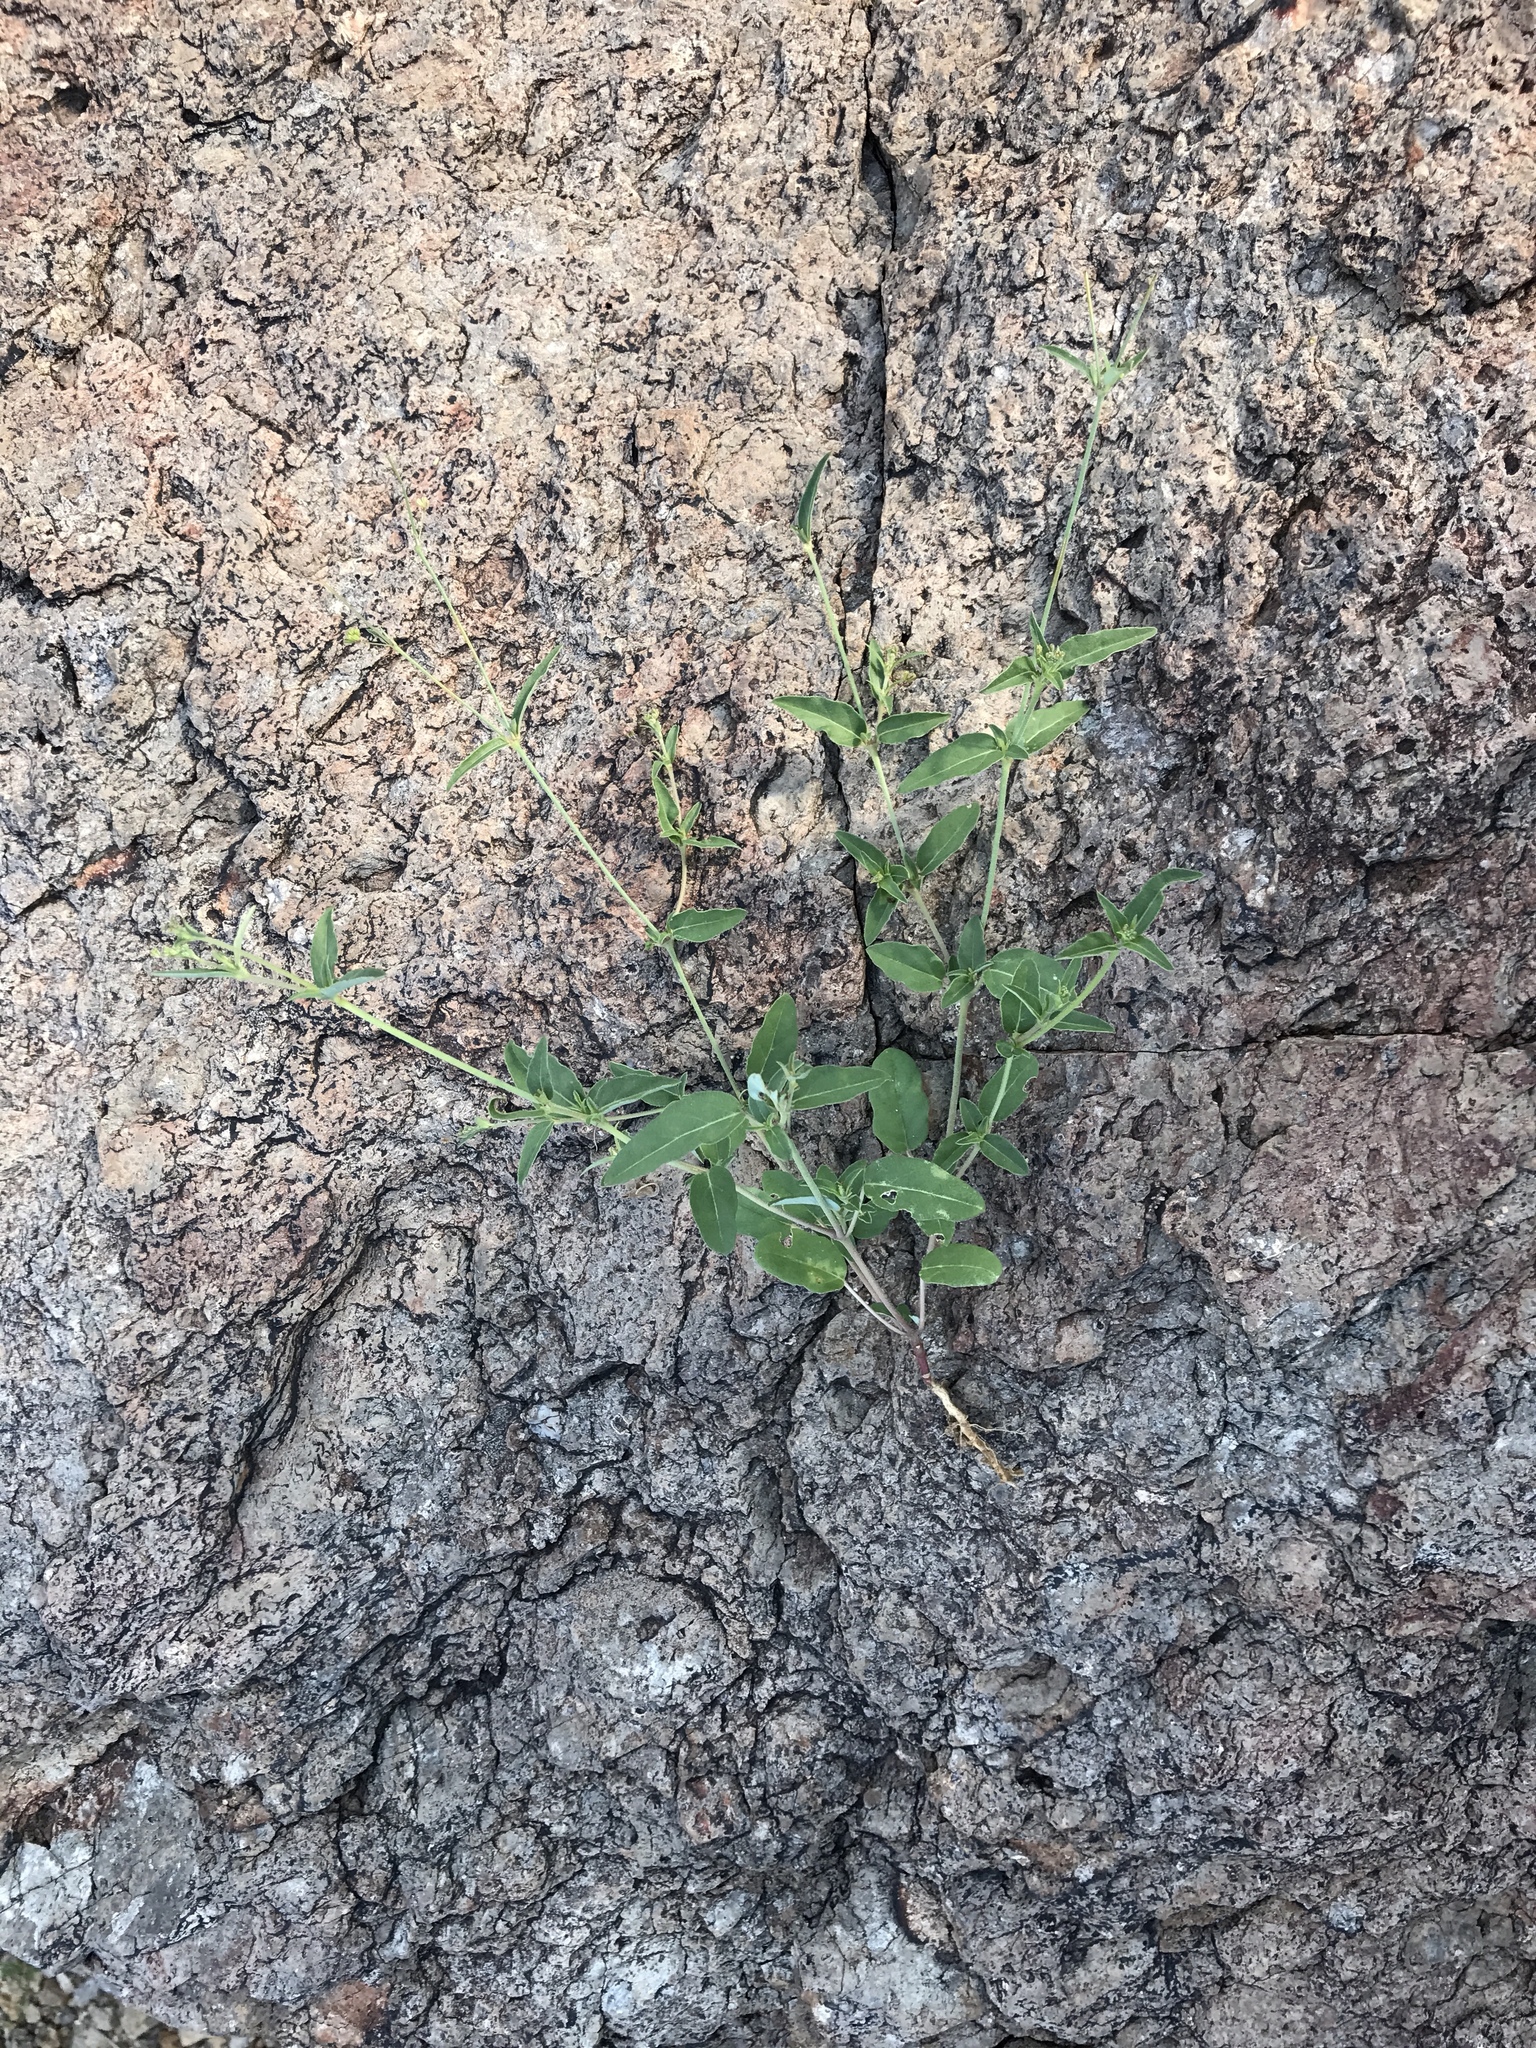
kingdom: Plantae
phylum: Tracheophyta
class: Magnoliopsida
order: Caryophyllales
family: Nyctaginaceae
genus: Boerhavia
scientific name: Boerhavia erecta
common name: Erect spiderling
